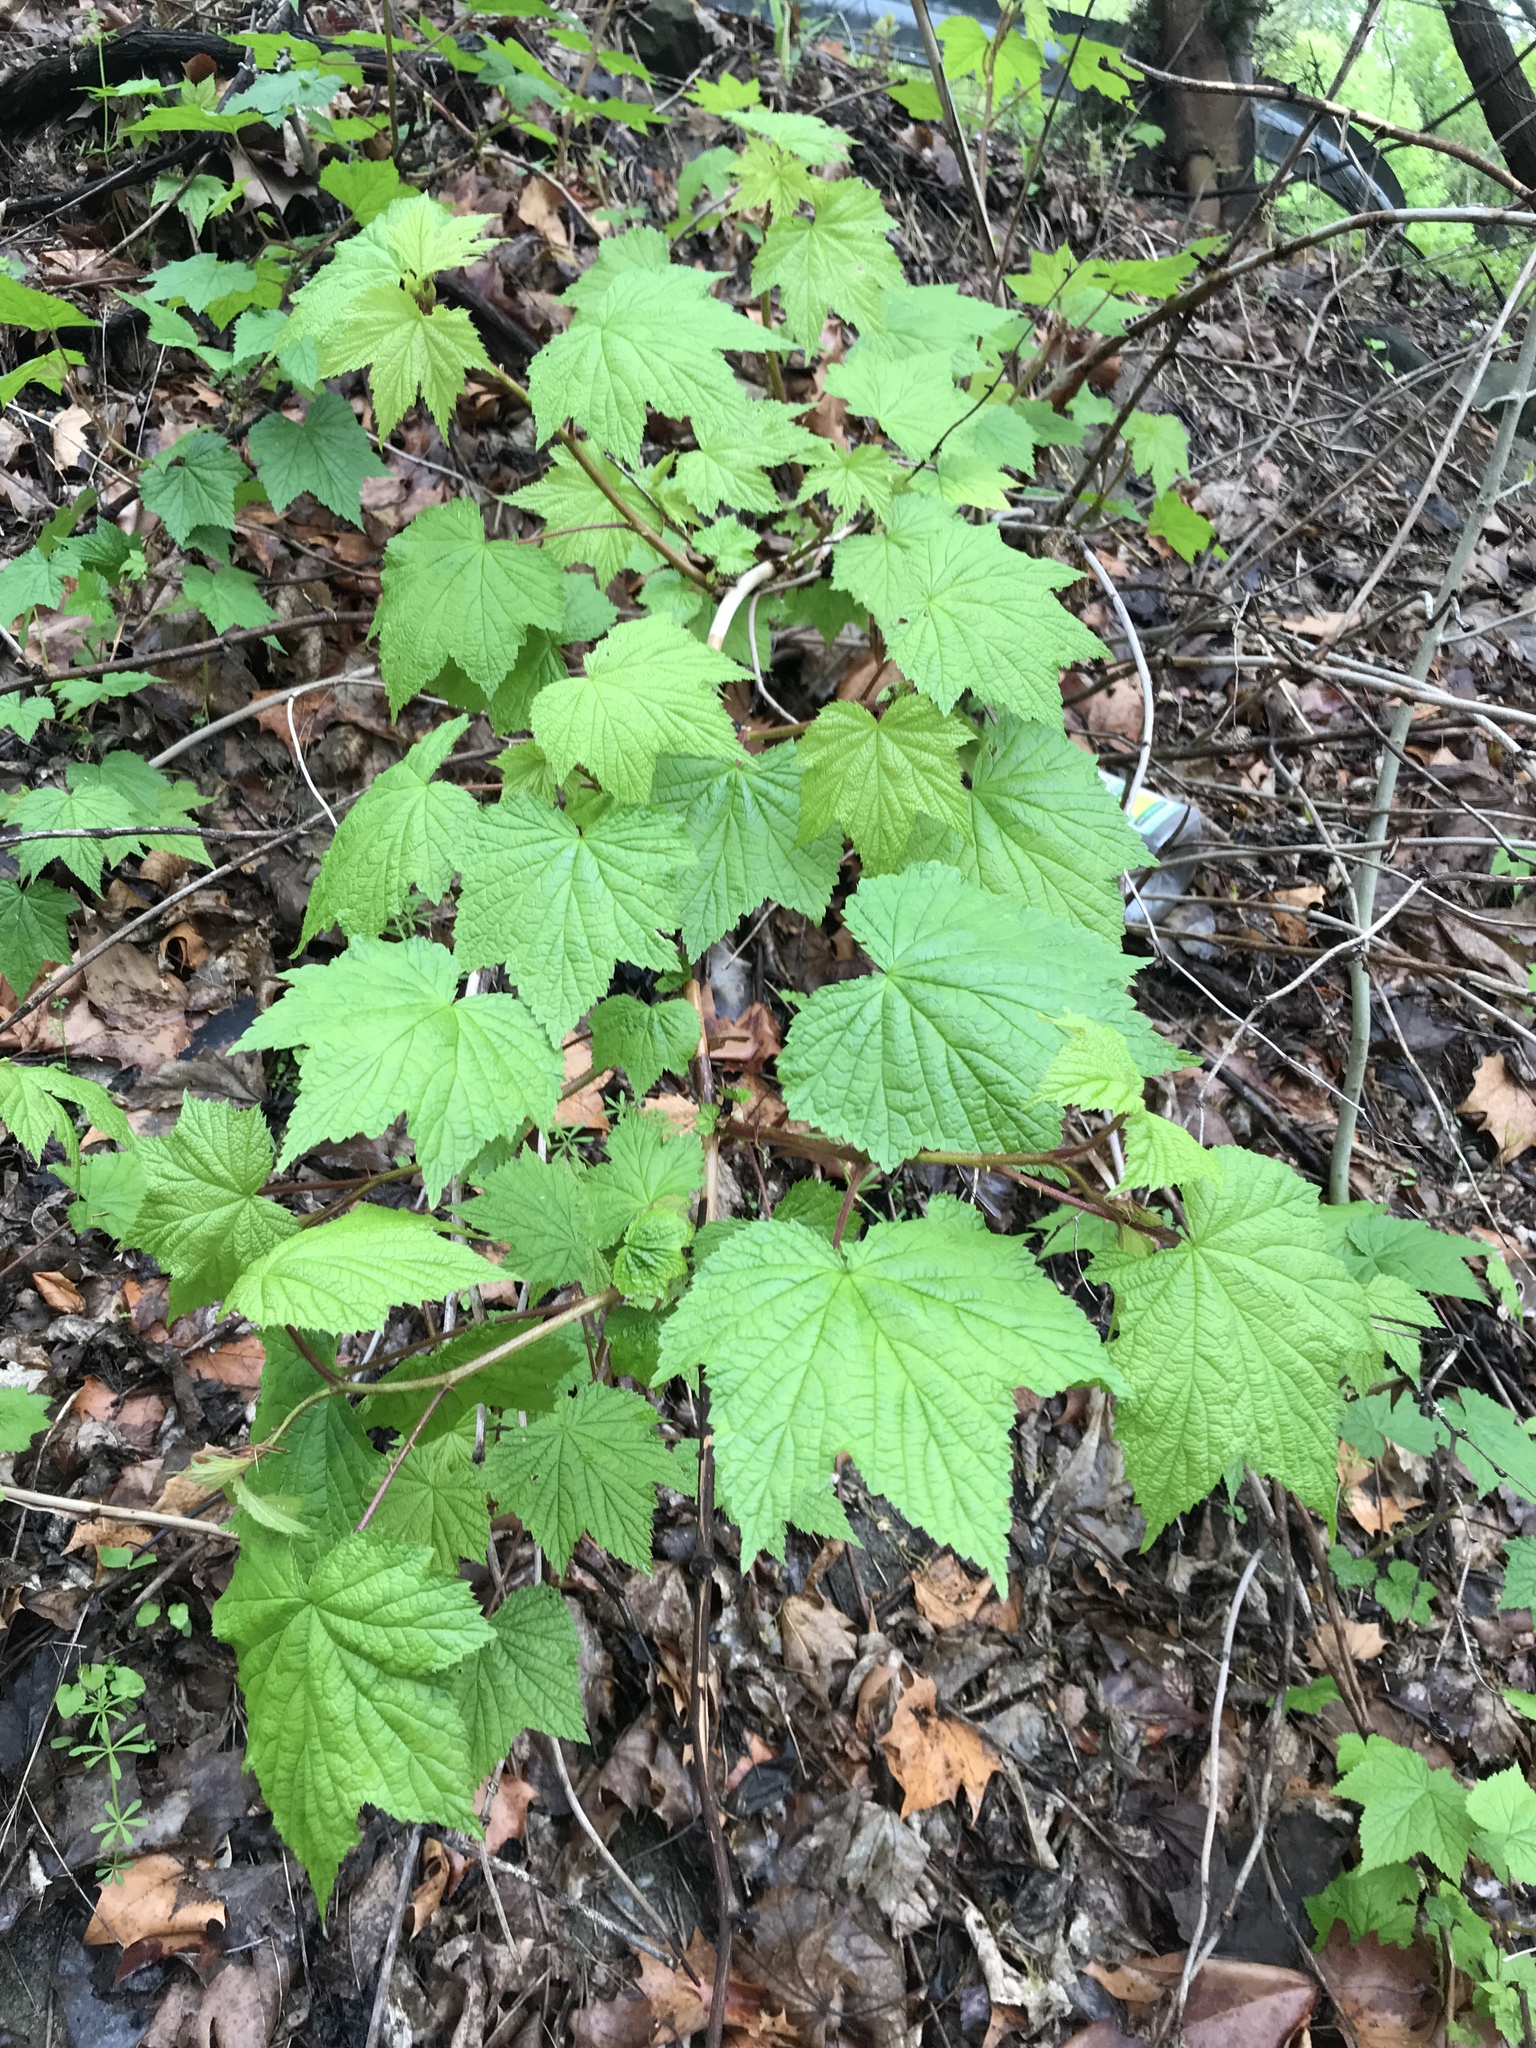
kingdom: Plantae
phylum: Tracheophyta
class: Magnoliopsida
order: Rosales
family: Rosaceae
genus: Rubus
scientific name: Rubus odoratus
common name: Purple-flowered raspberry
